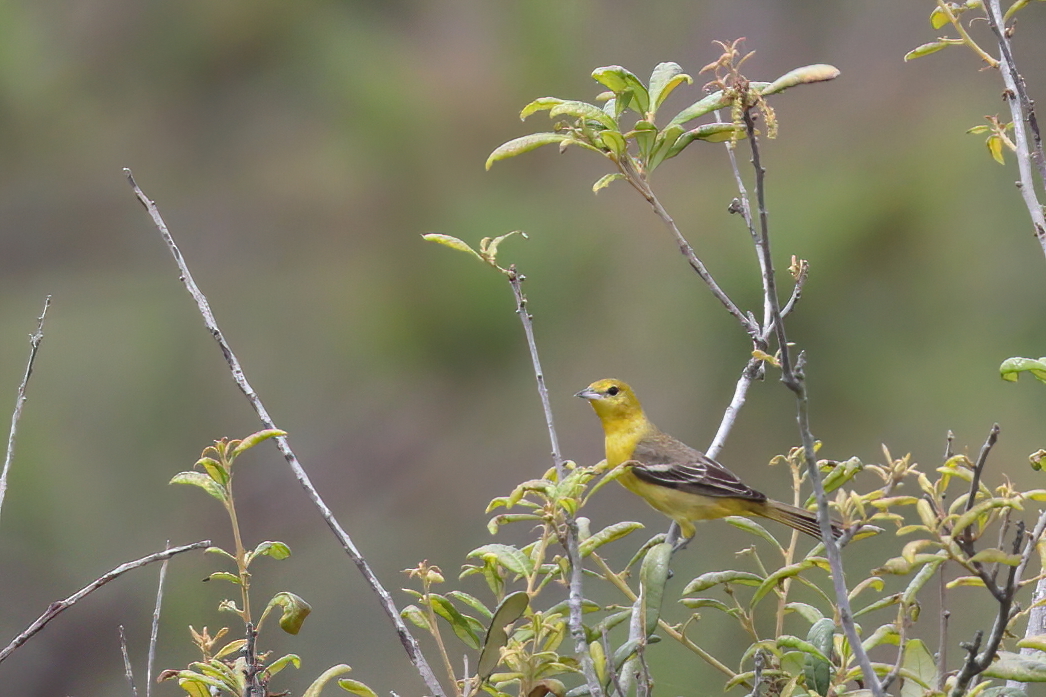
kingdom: Animalia
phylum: Chordata
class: Aves
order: Passeriformes
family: Icteridae
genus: Icterus
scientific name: Icterus spurius
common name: Orchard oriole
